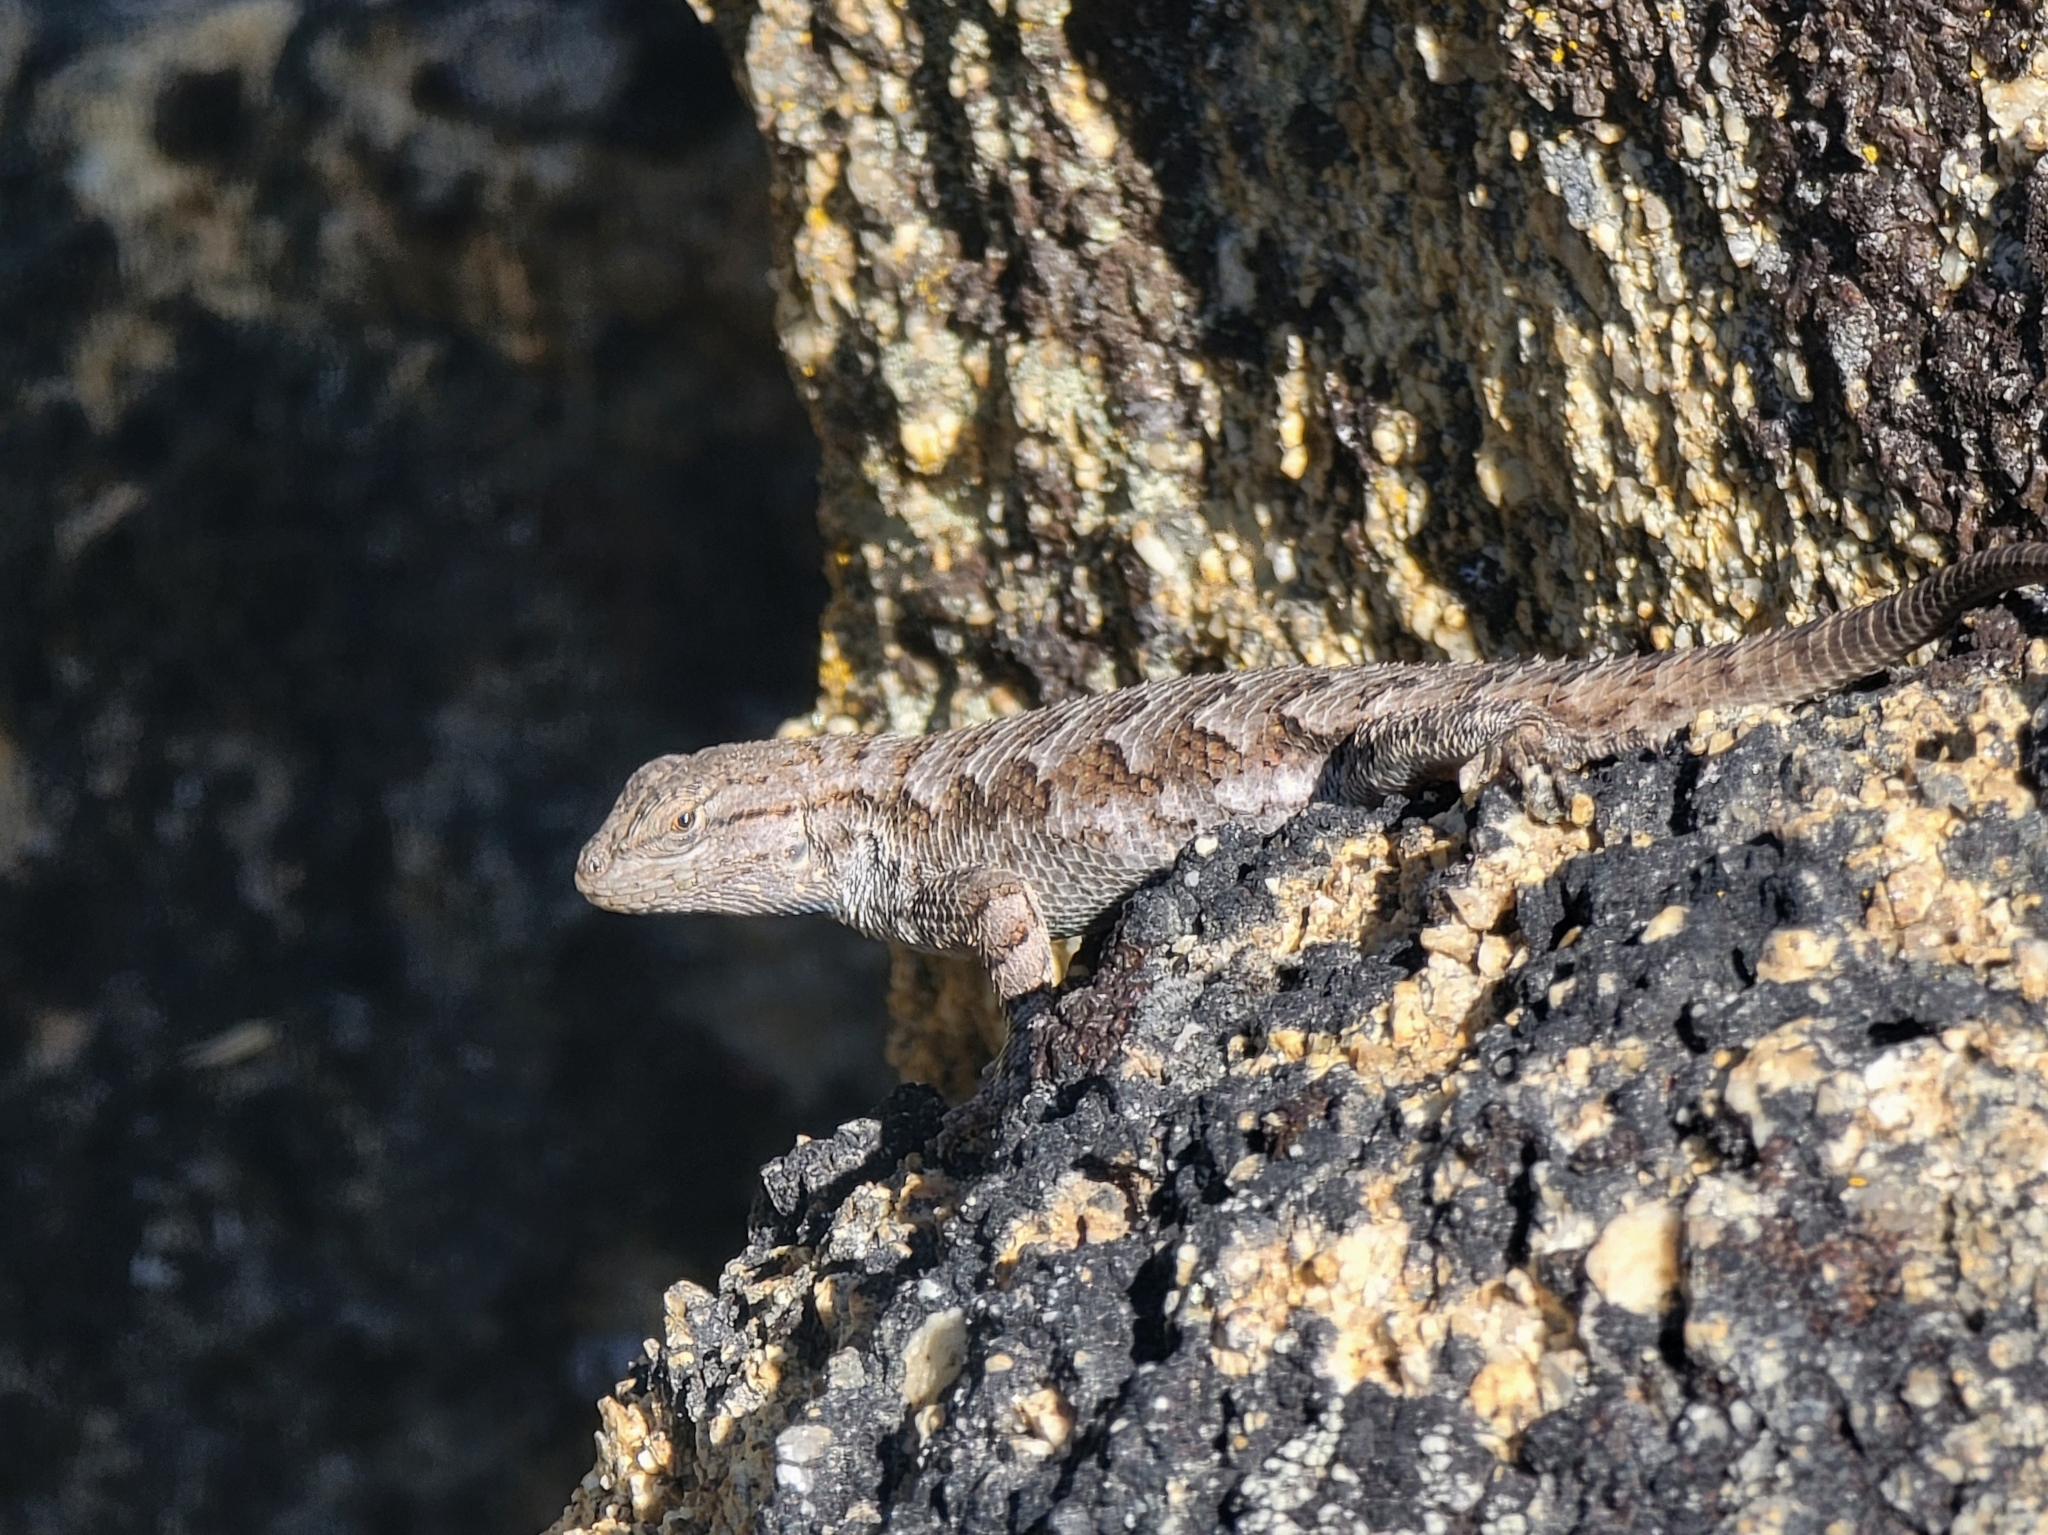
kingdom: Animalia
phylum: Chordata
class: Squamata
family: Phrynosomatidae
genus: Sceloporus
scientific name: Sceloporus occidentalis
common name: Western fence lizard
